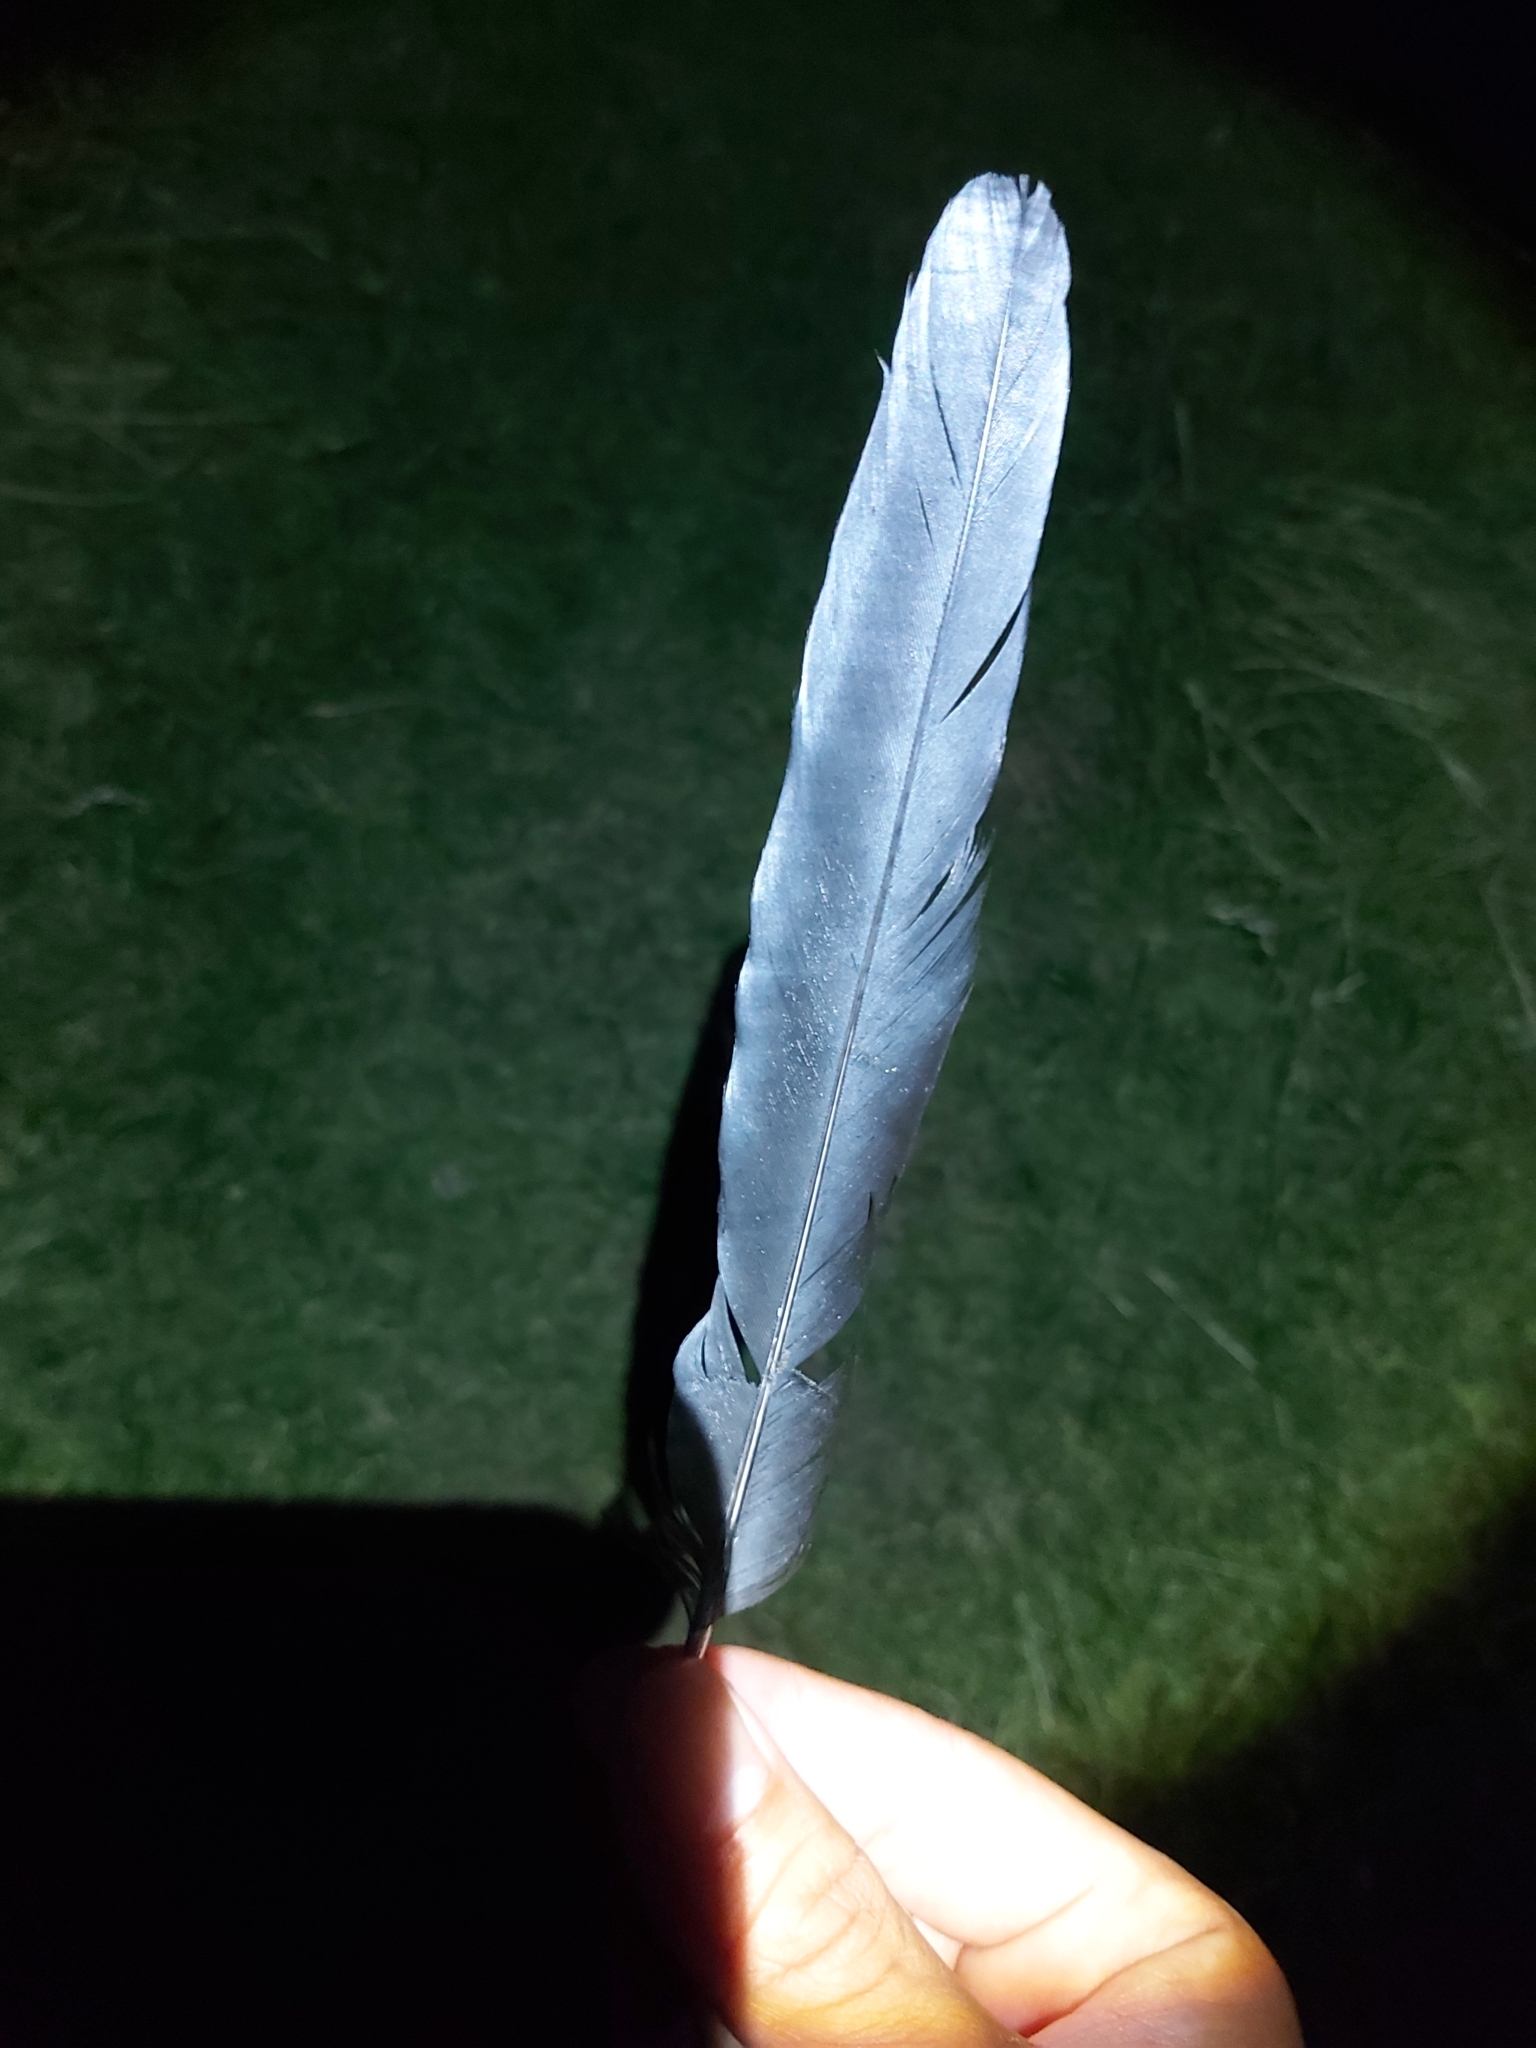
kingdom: Animalia
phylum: Chordata
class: Aves
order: Passeriformes
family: Corvidae
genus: Pica
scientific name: Pica pica
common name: Eurasian magpie
